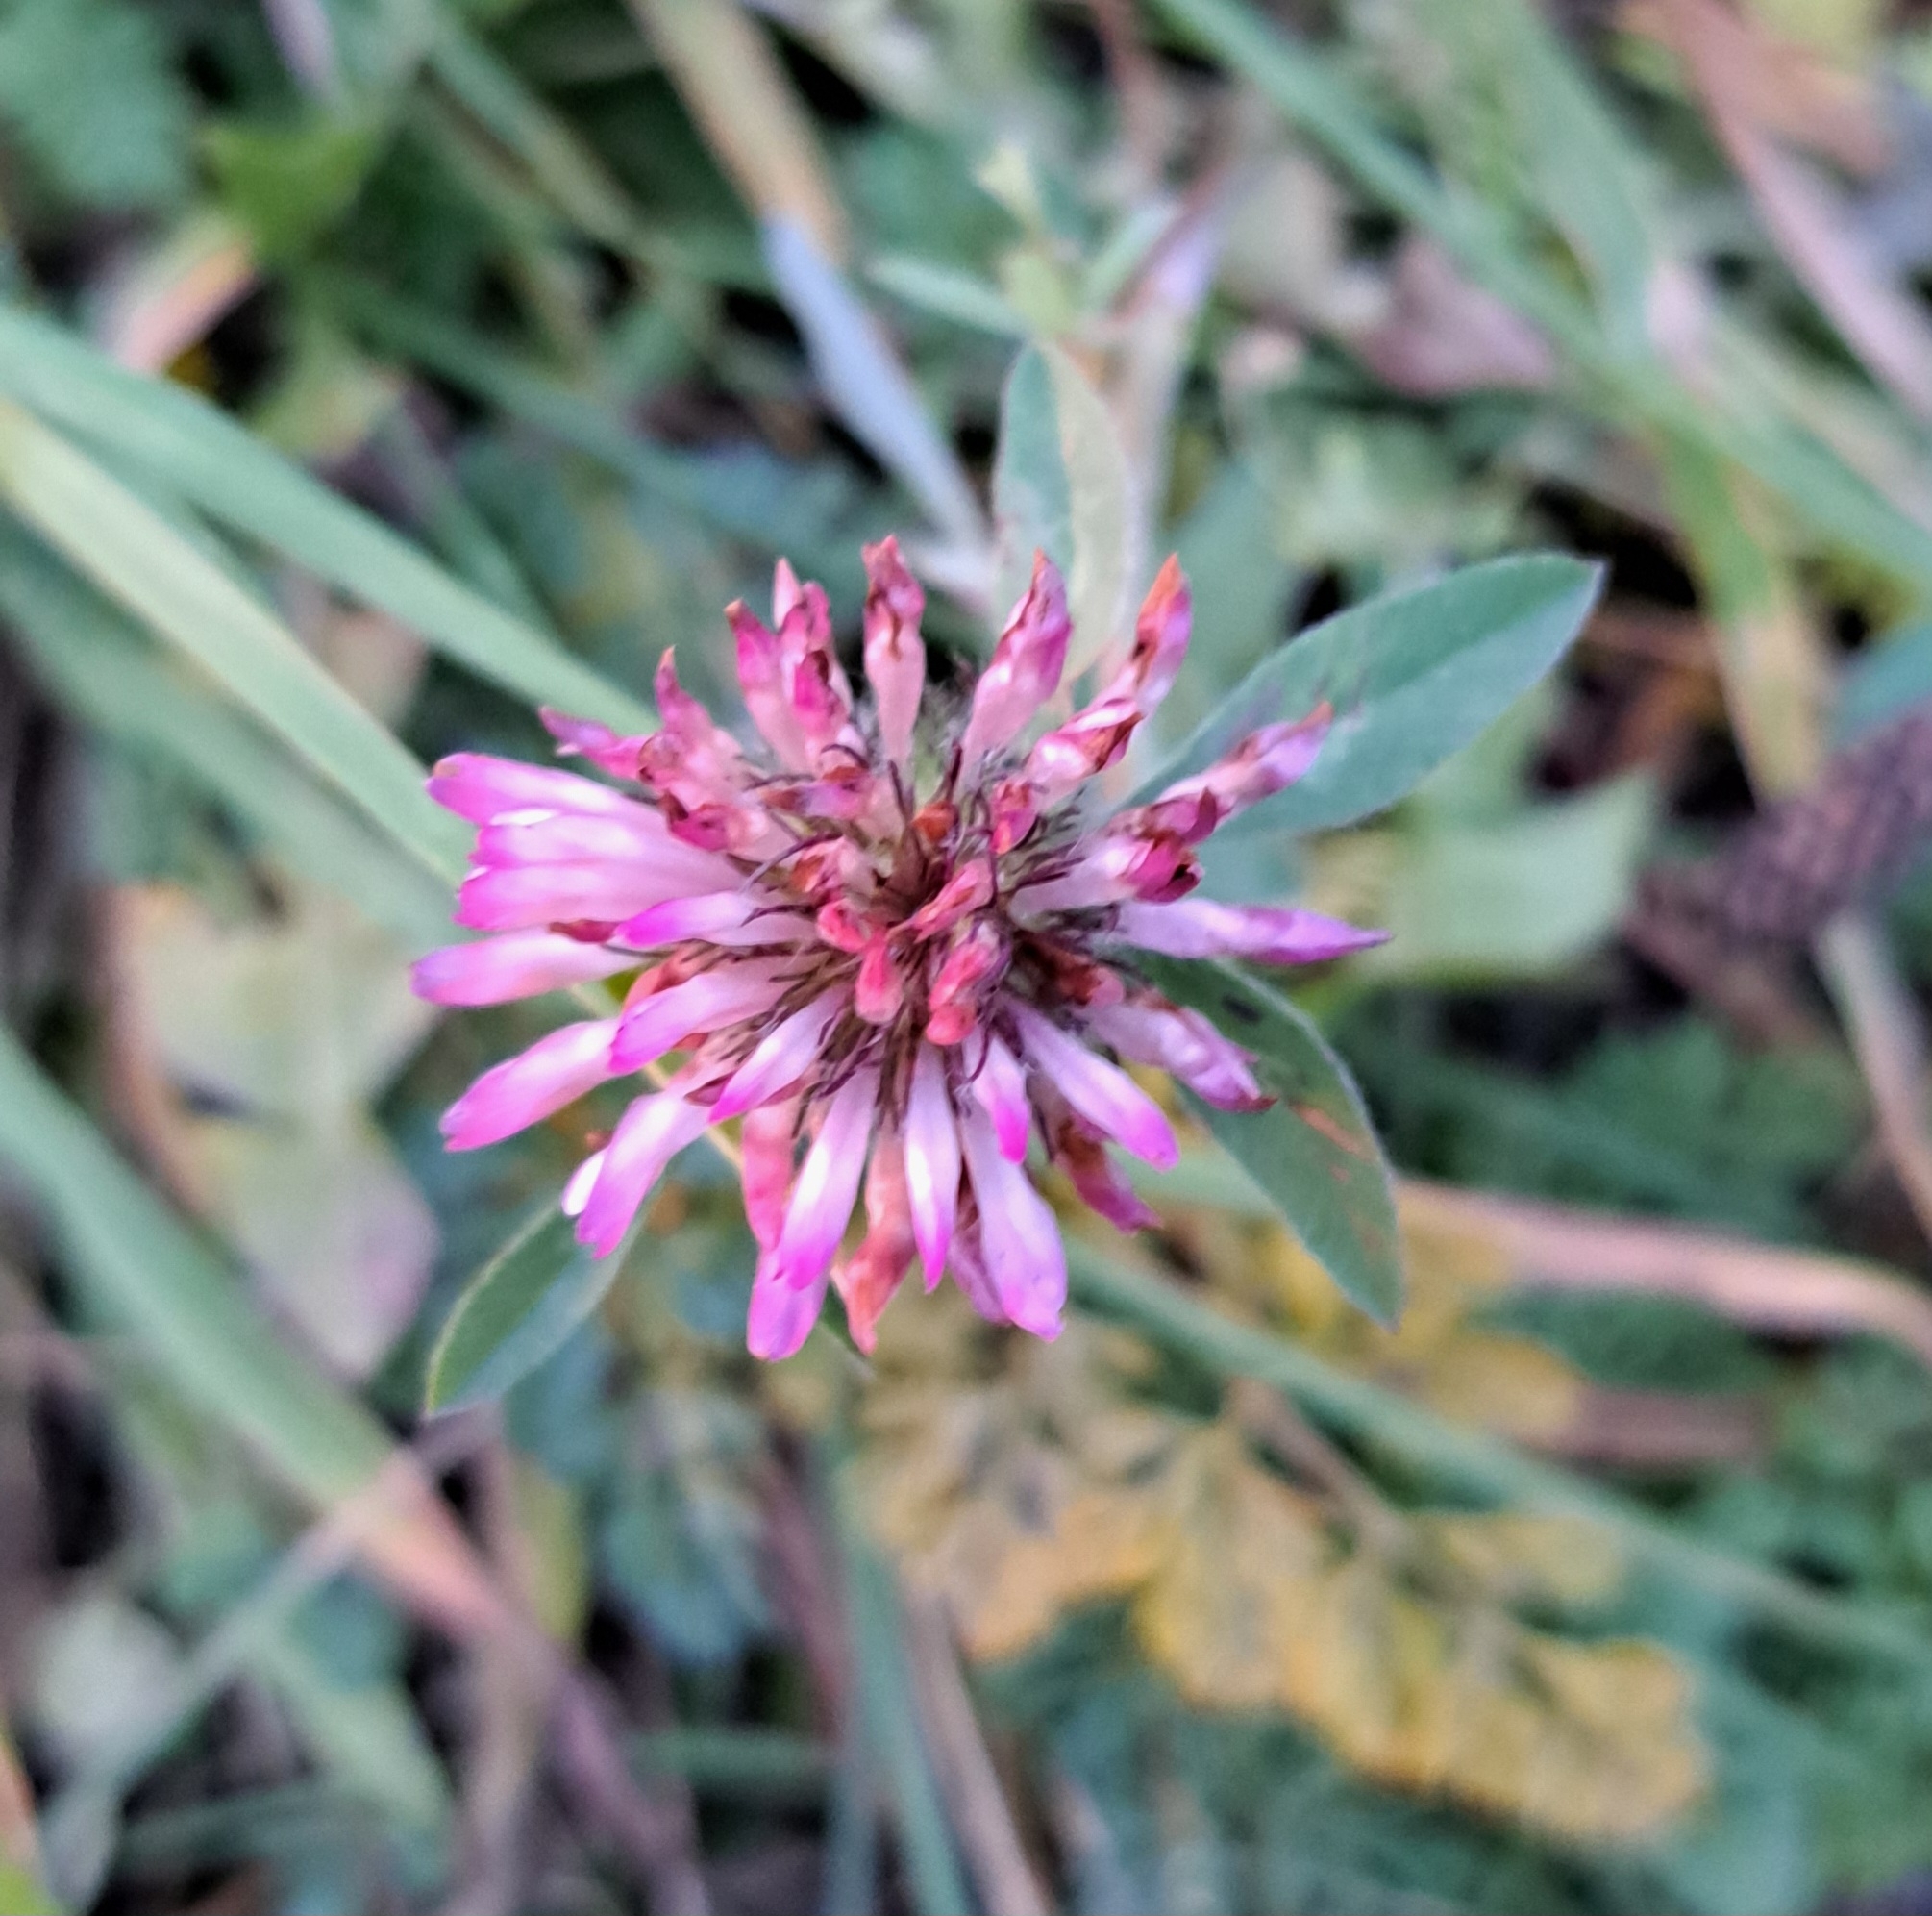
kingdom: Plantae
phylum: Tracheophyta
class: Magnoliopsida
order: Fabales
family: Fabaceae
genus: Trifolium
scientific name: Trifolium pratense
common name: Red clover
